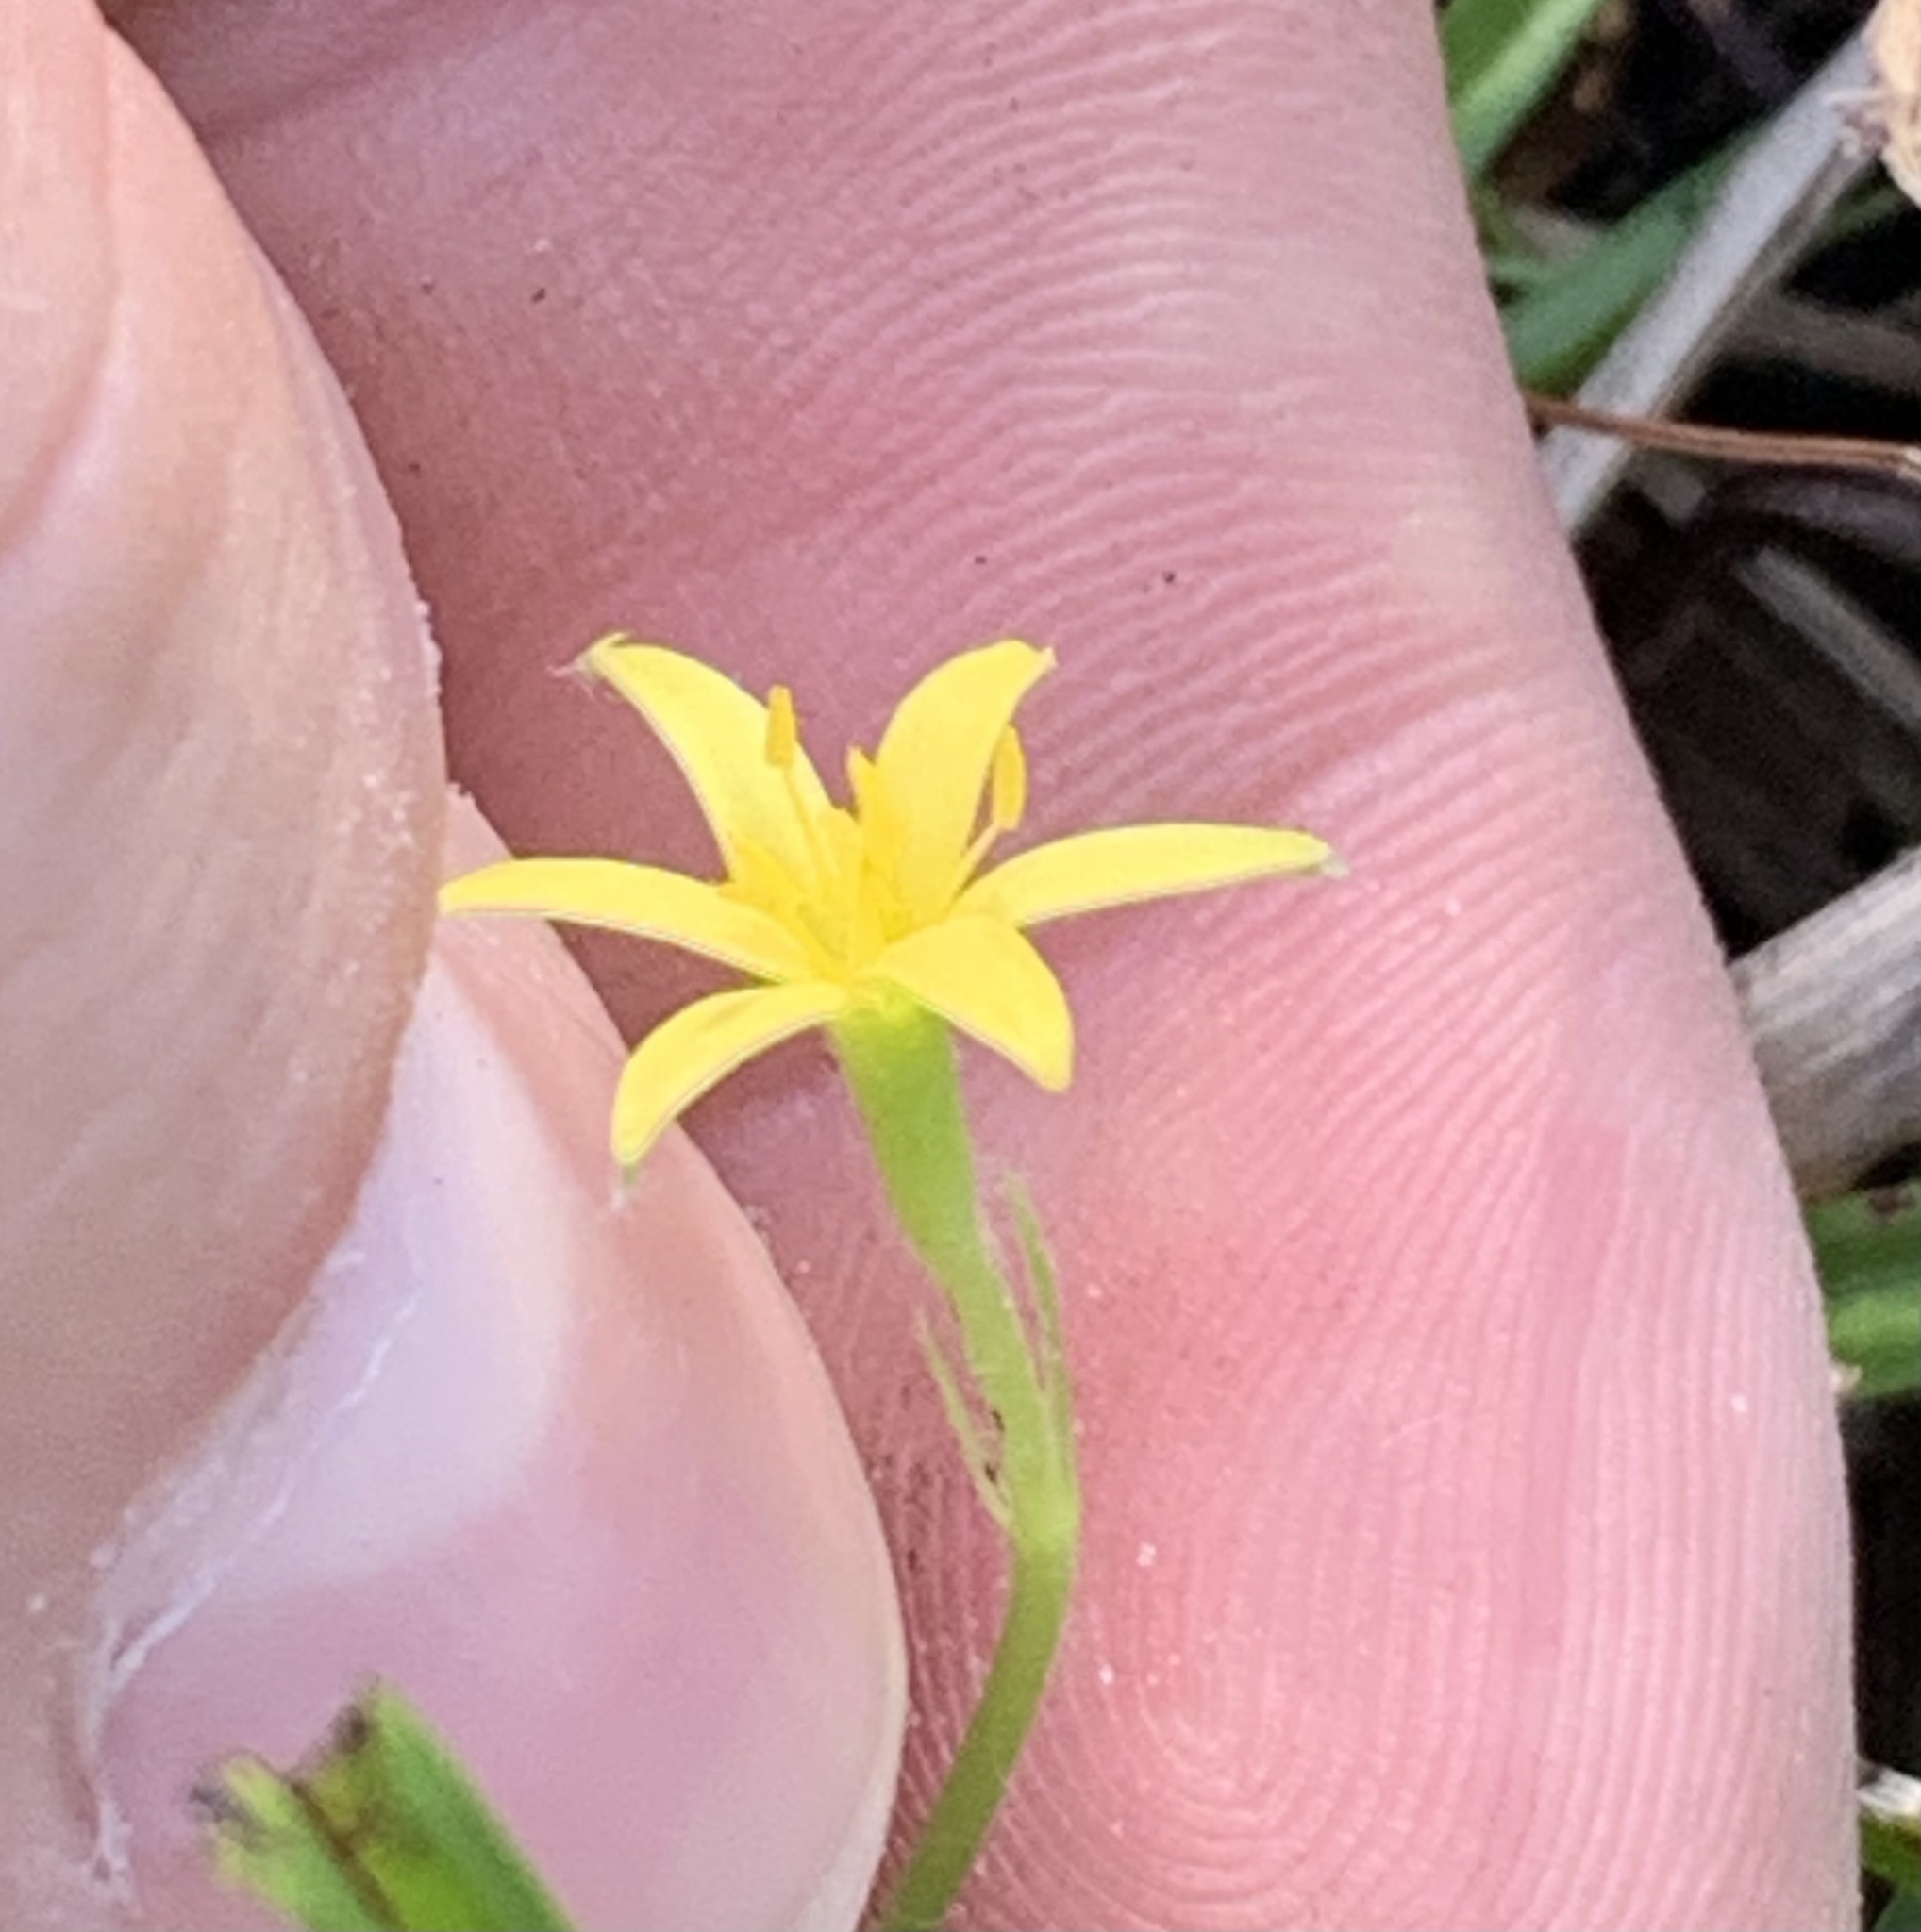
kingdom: Plantae
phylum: Tracheophyta
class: Liliopsida
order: Asparagales
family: Hypoxidaceae
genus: Hypoxis
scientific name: Hypoxis wrightii
